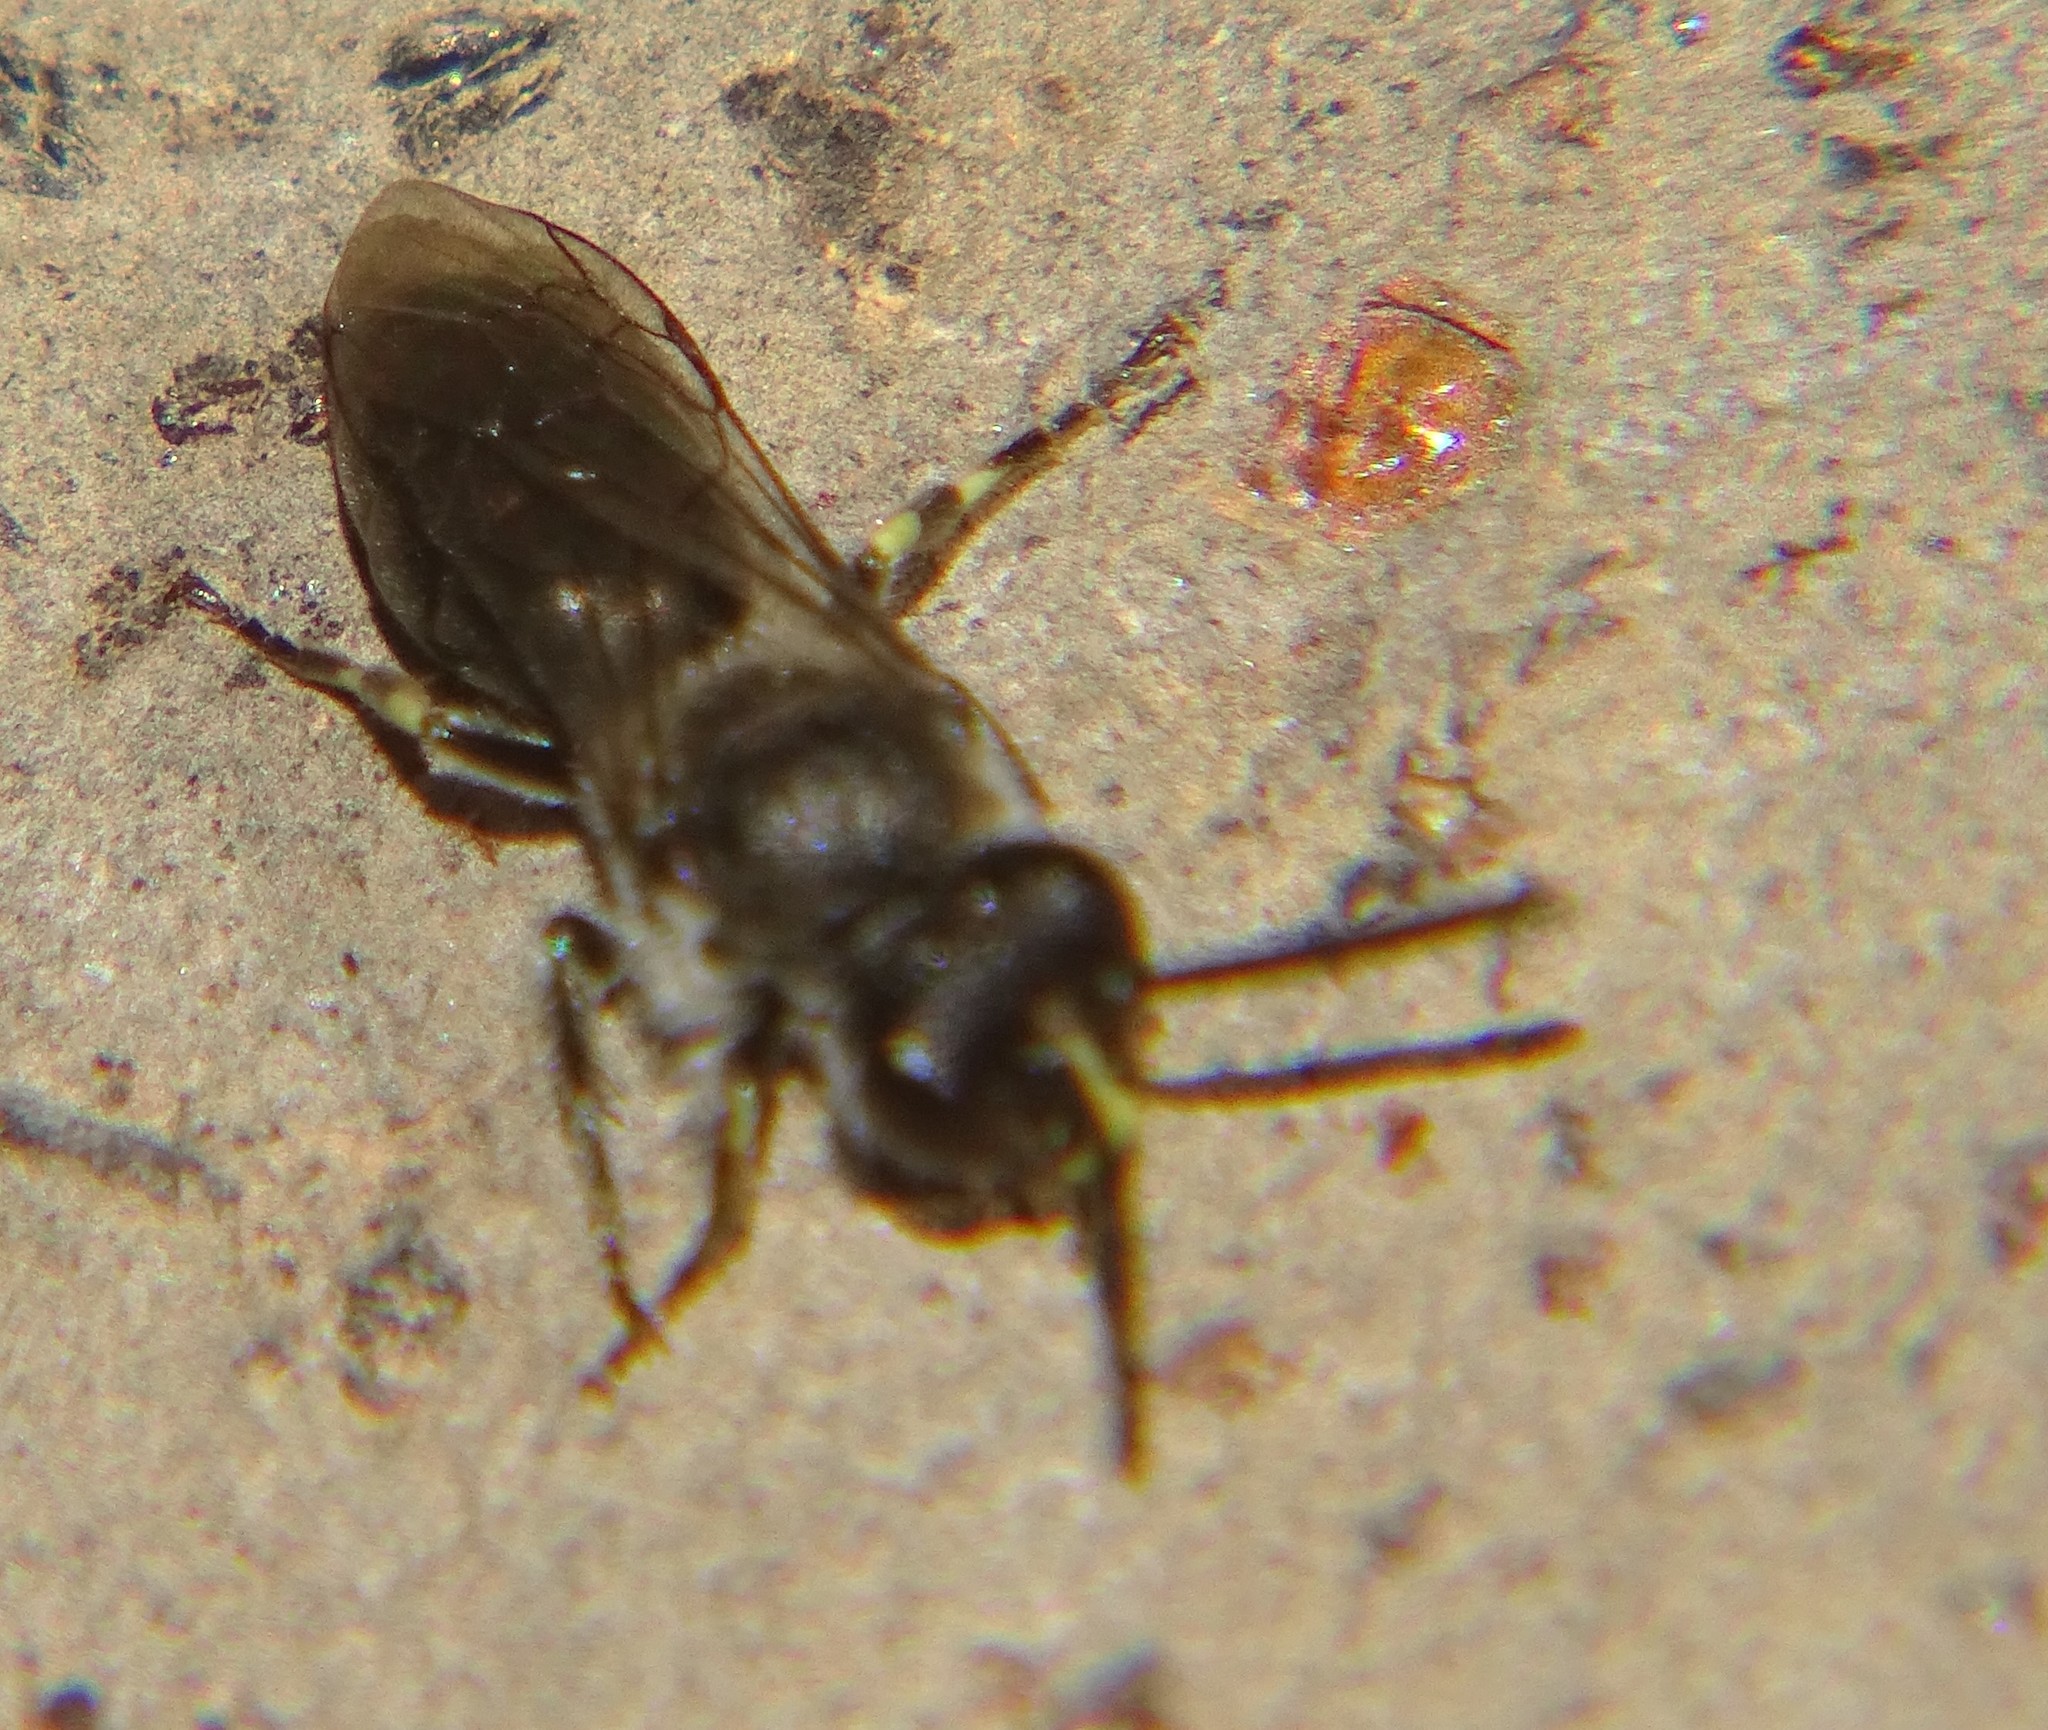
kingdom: Animalia
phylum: Arthropoda
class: Insecta
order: Hymenoptera
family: Colletidae
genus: Hylaeus
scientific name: Hylaeus nivicola
